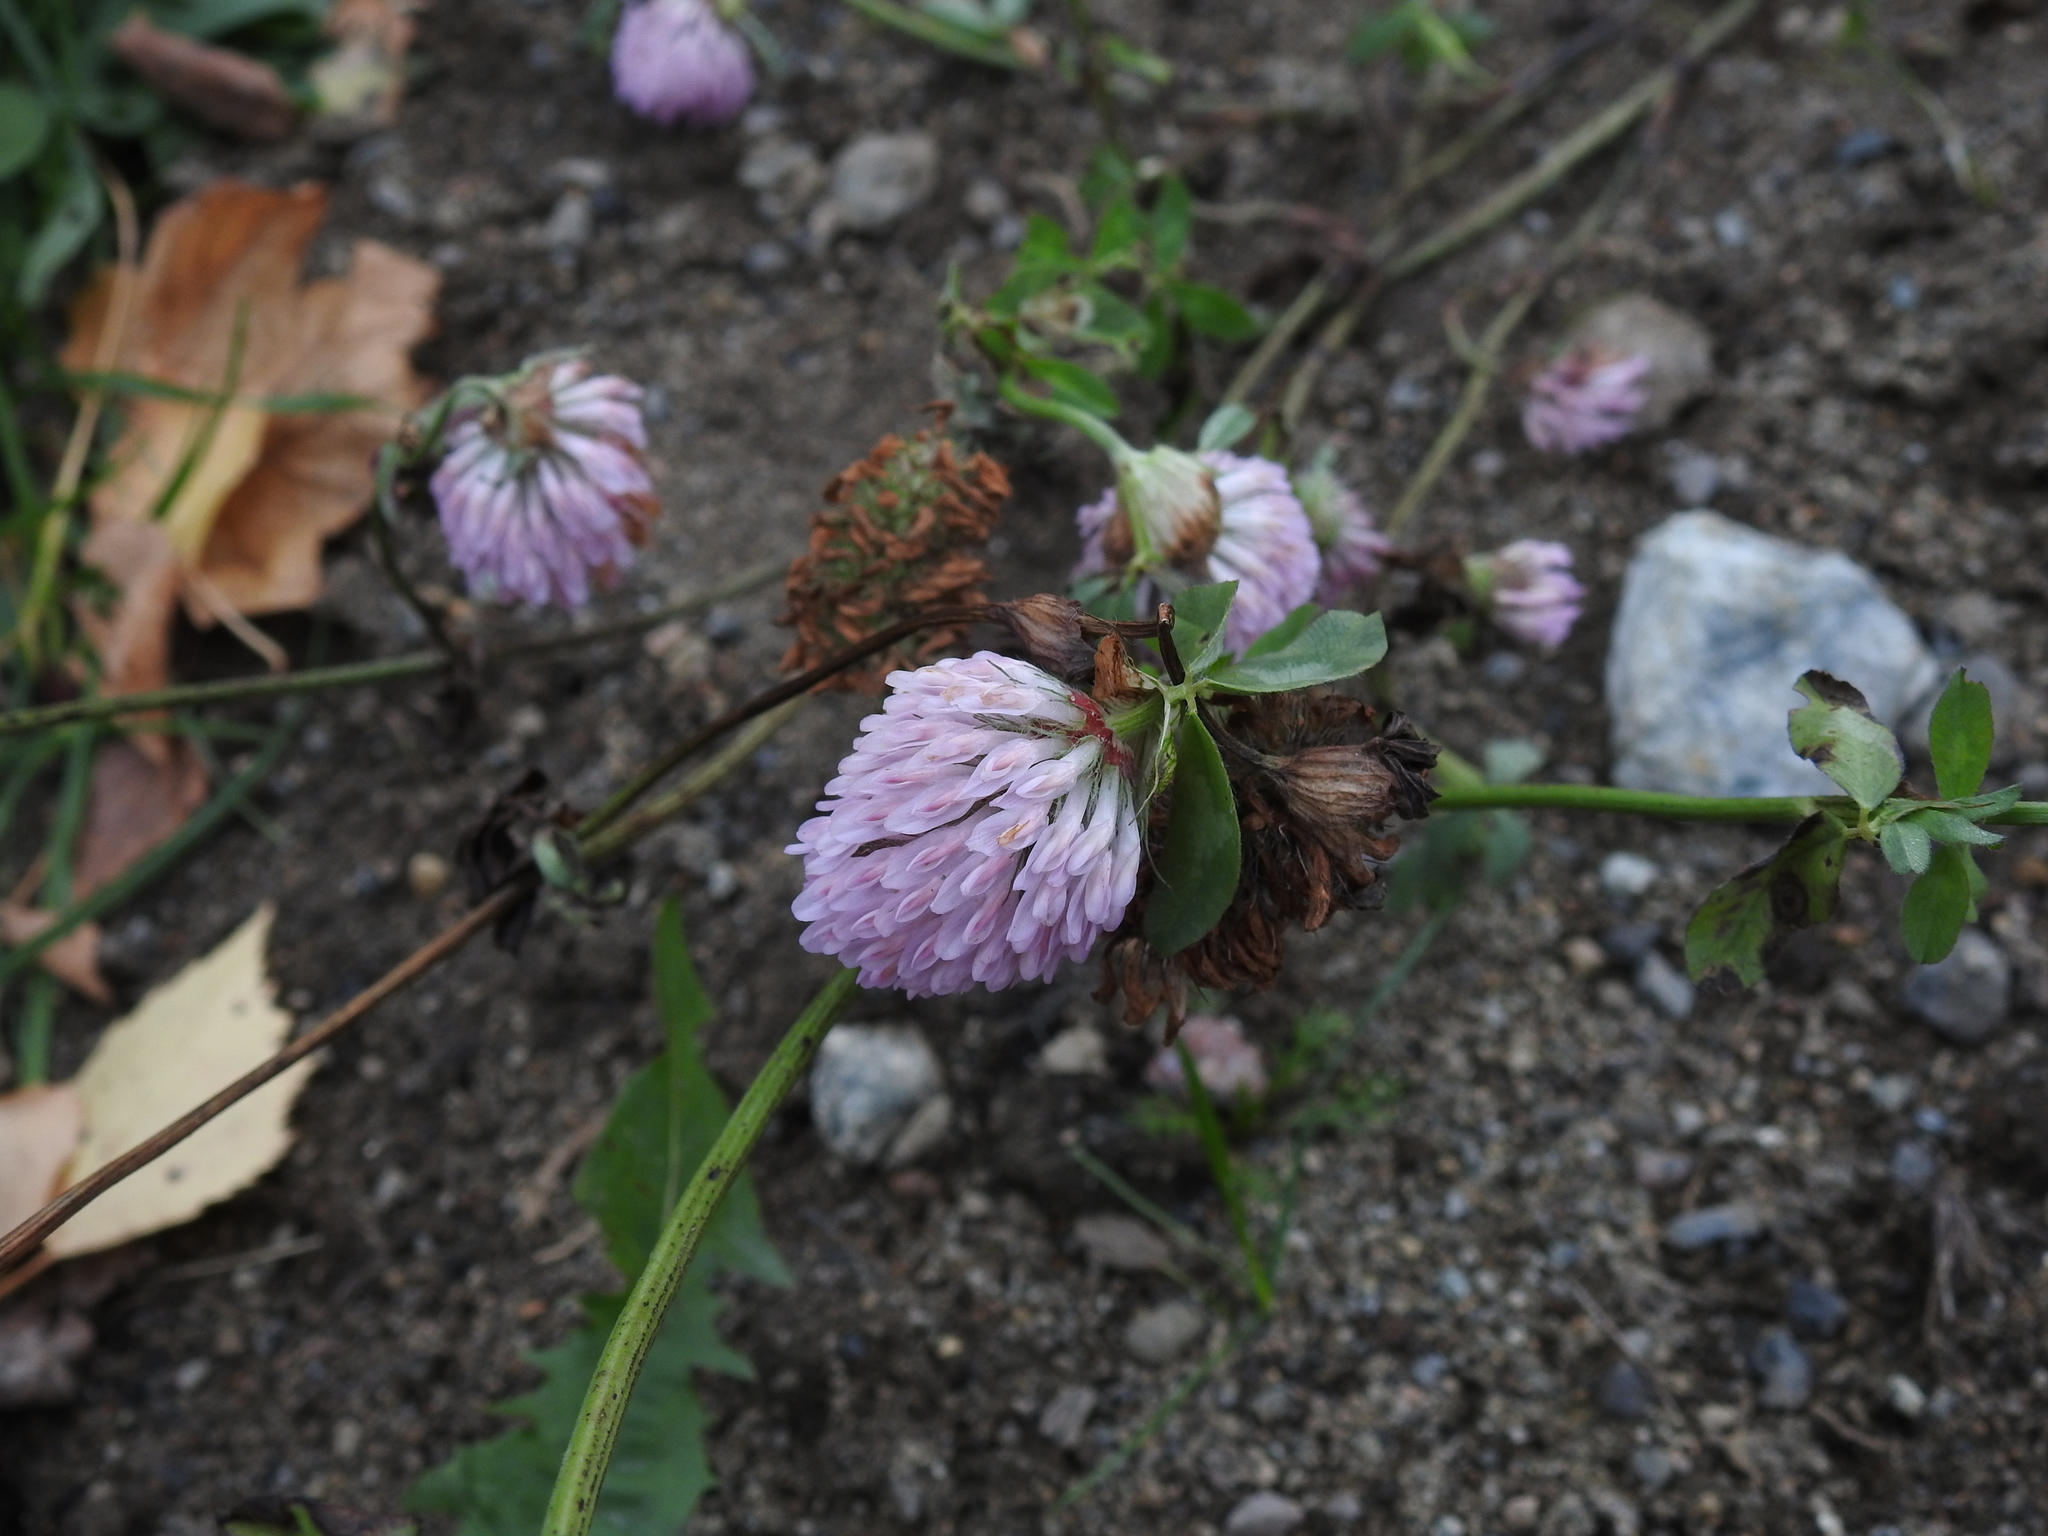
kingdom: Plantae
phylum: Tracheophyta
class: Magnoliopsida
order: Fabales
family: Fabaceae
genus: Trifolium
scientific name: Trifolium pratense
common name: Red clover
